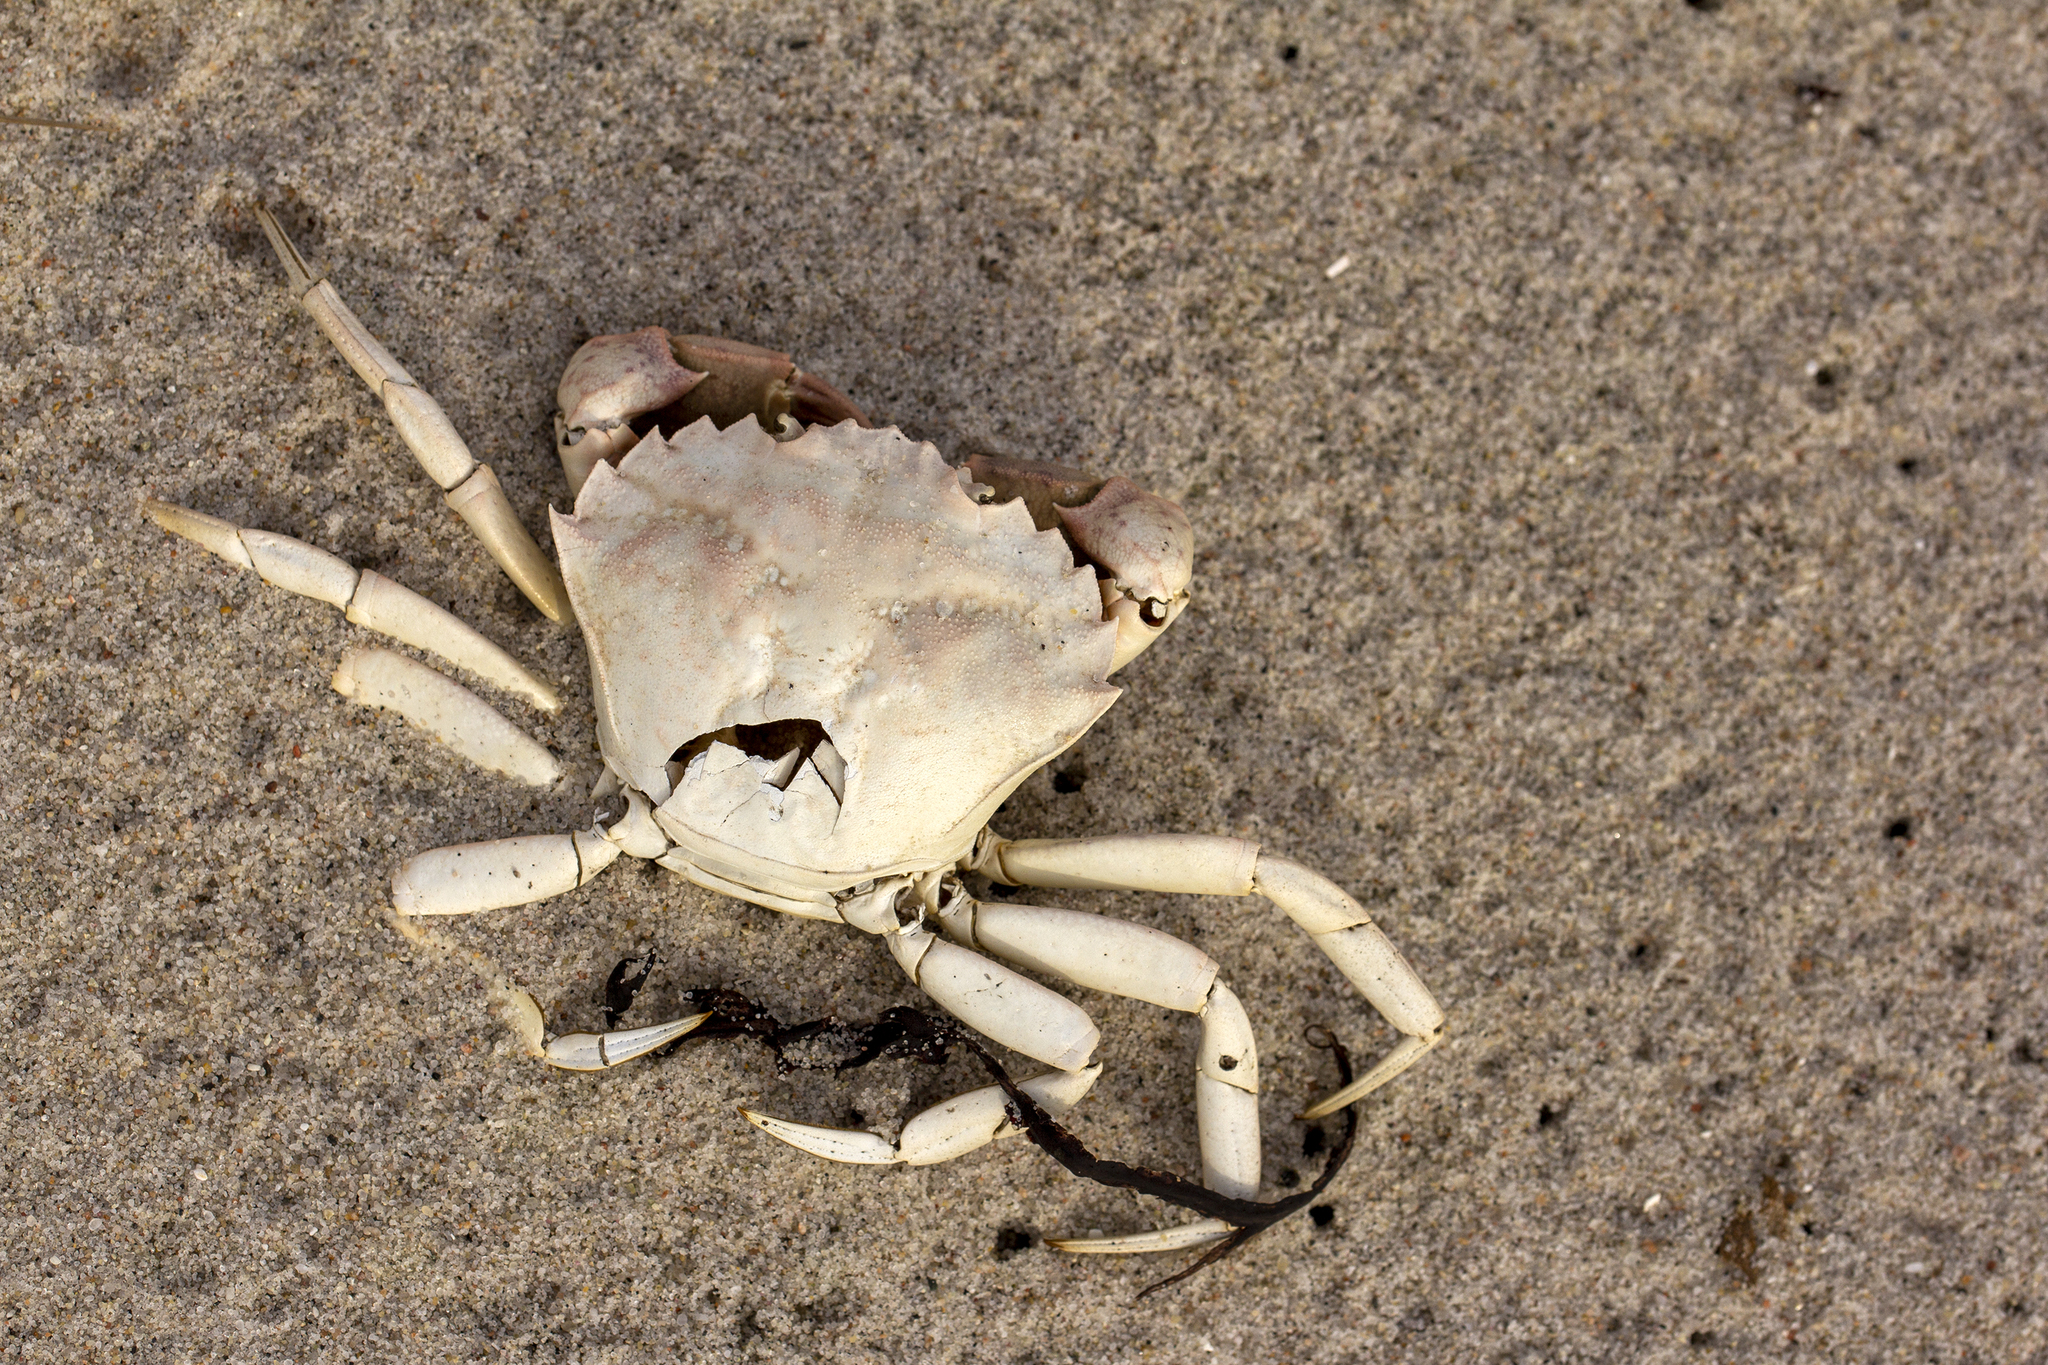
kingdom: Animalia
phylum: Arthropoda
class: Malacostraca
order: Decapoda
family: Carcinidae
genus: Carcinus
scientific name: Carcinus maenas
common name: European green crab
